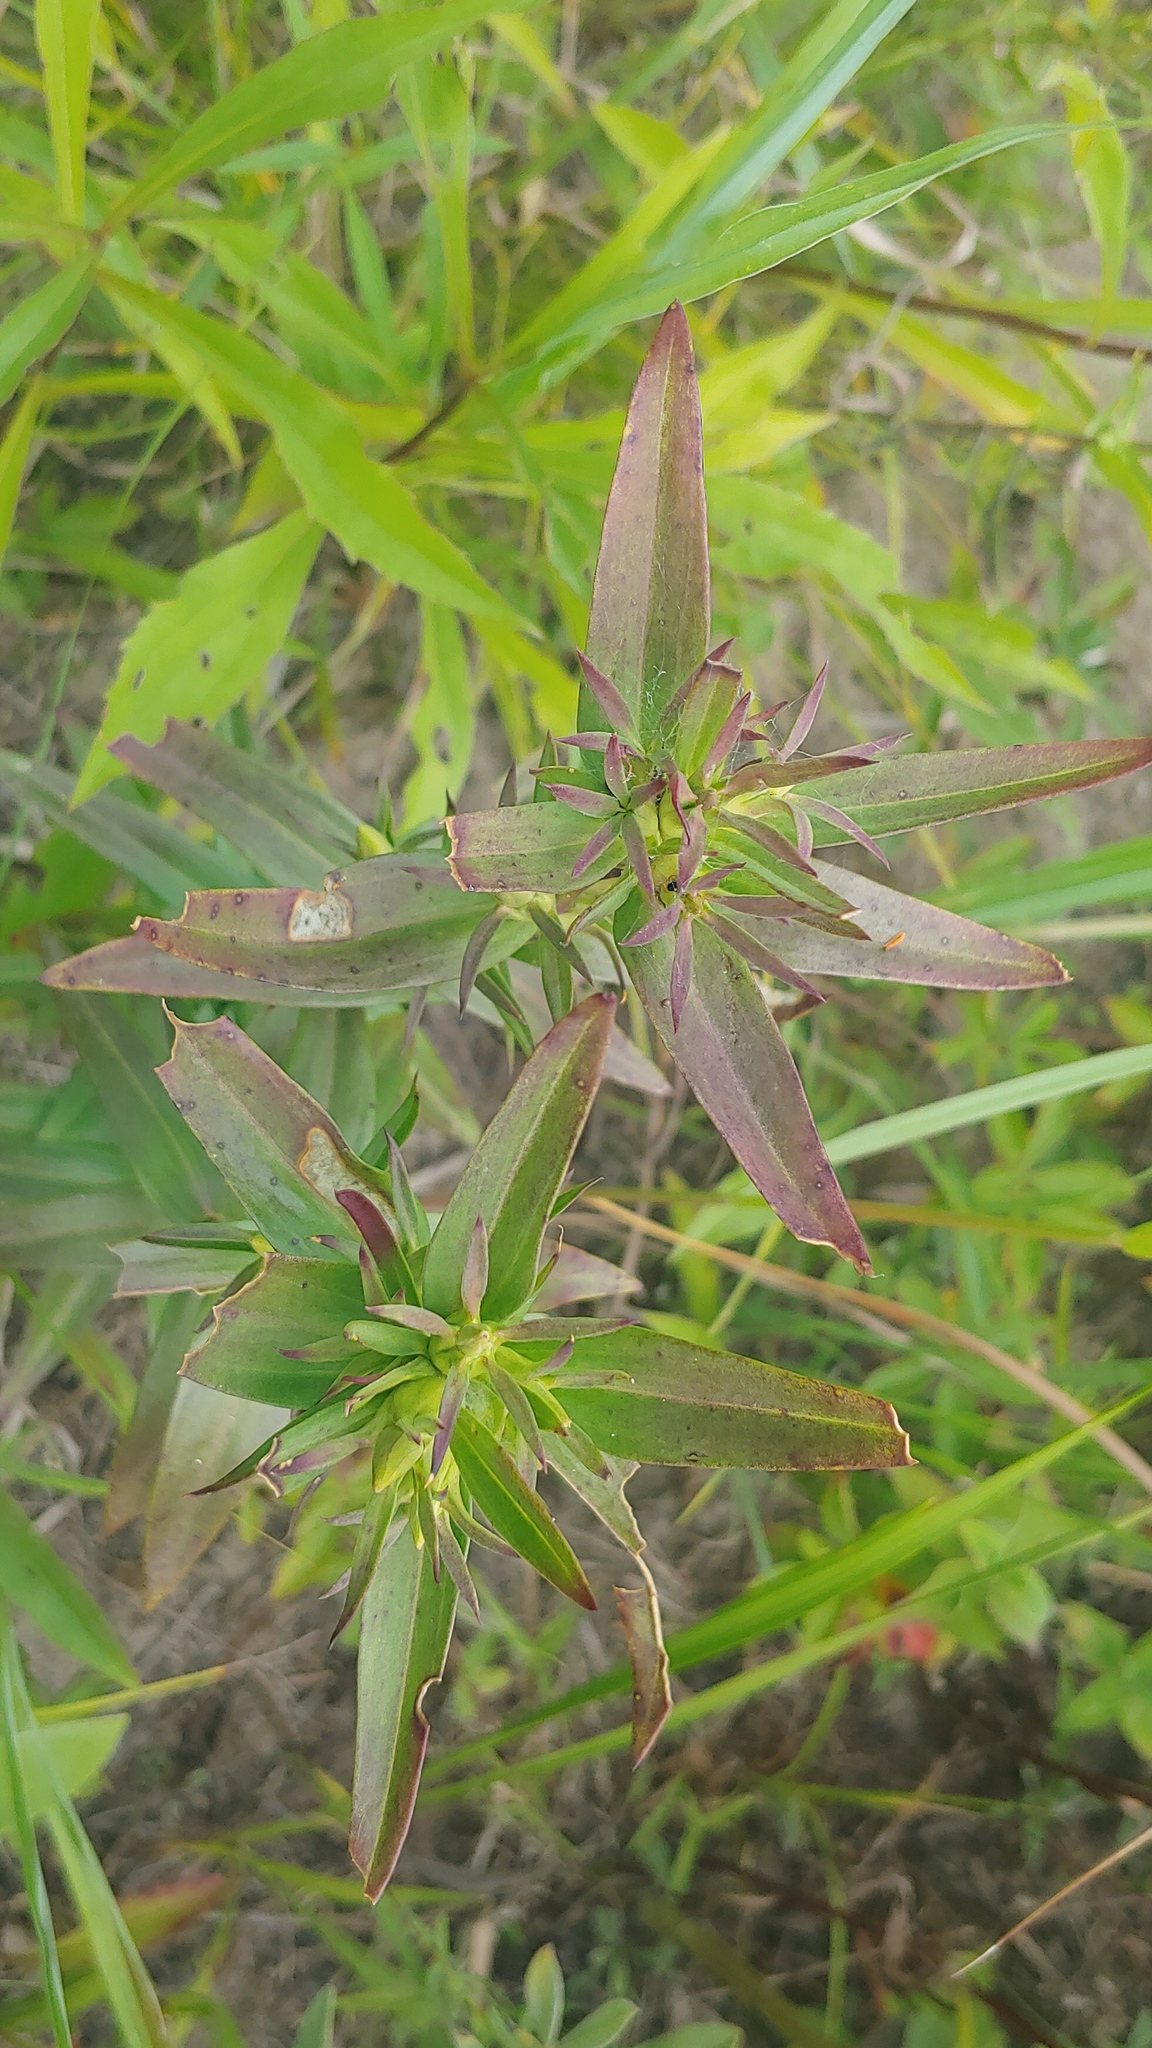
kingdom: Plantae
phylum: Tracheophyta
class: Magnoliopsida
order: Gentianales
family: Gentianaceae
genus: Gentiana
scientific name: Gentiana andrewsii
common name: Bottle gentian
